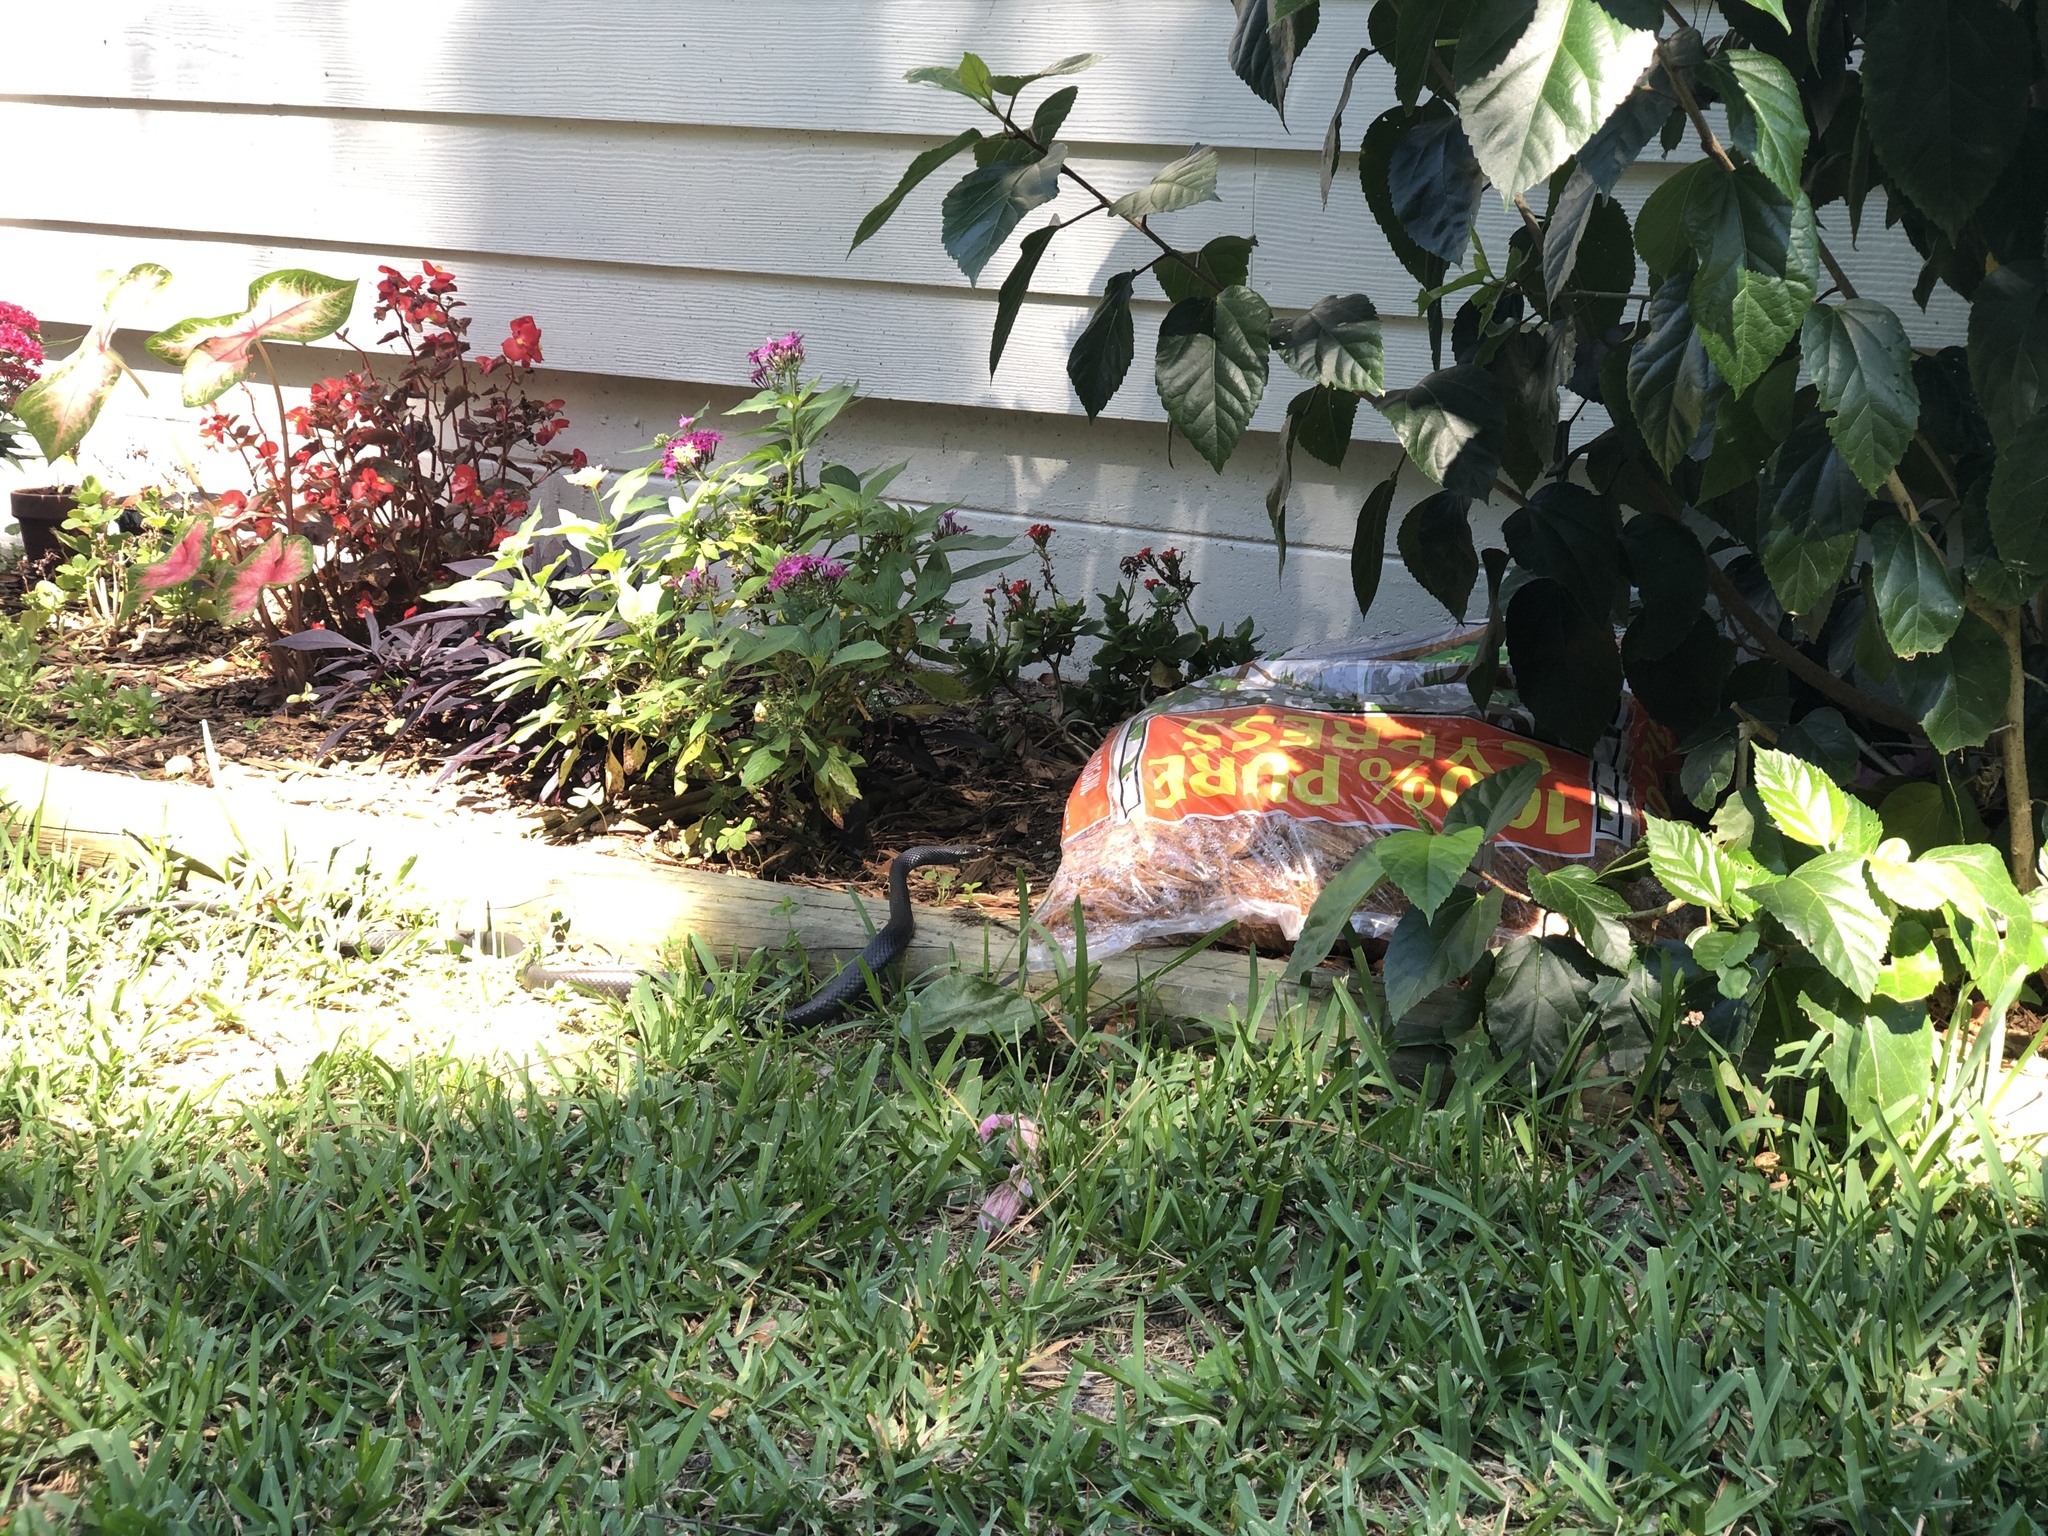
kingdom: Animalia
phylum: Chordata
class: Squamata
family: Colubridae
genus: Coluber
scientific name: Coluber constrictor
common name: Eastern racer
